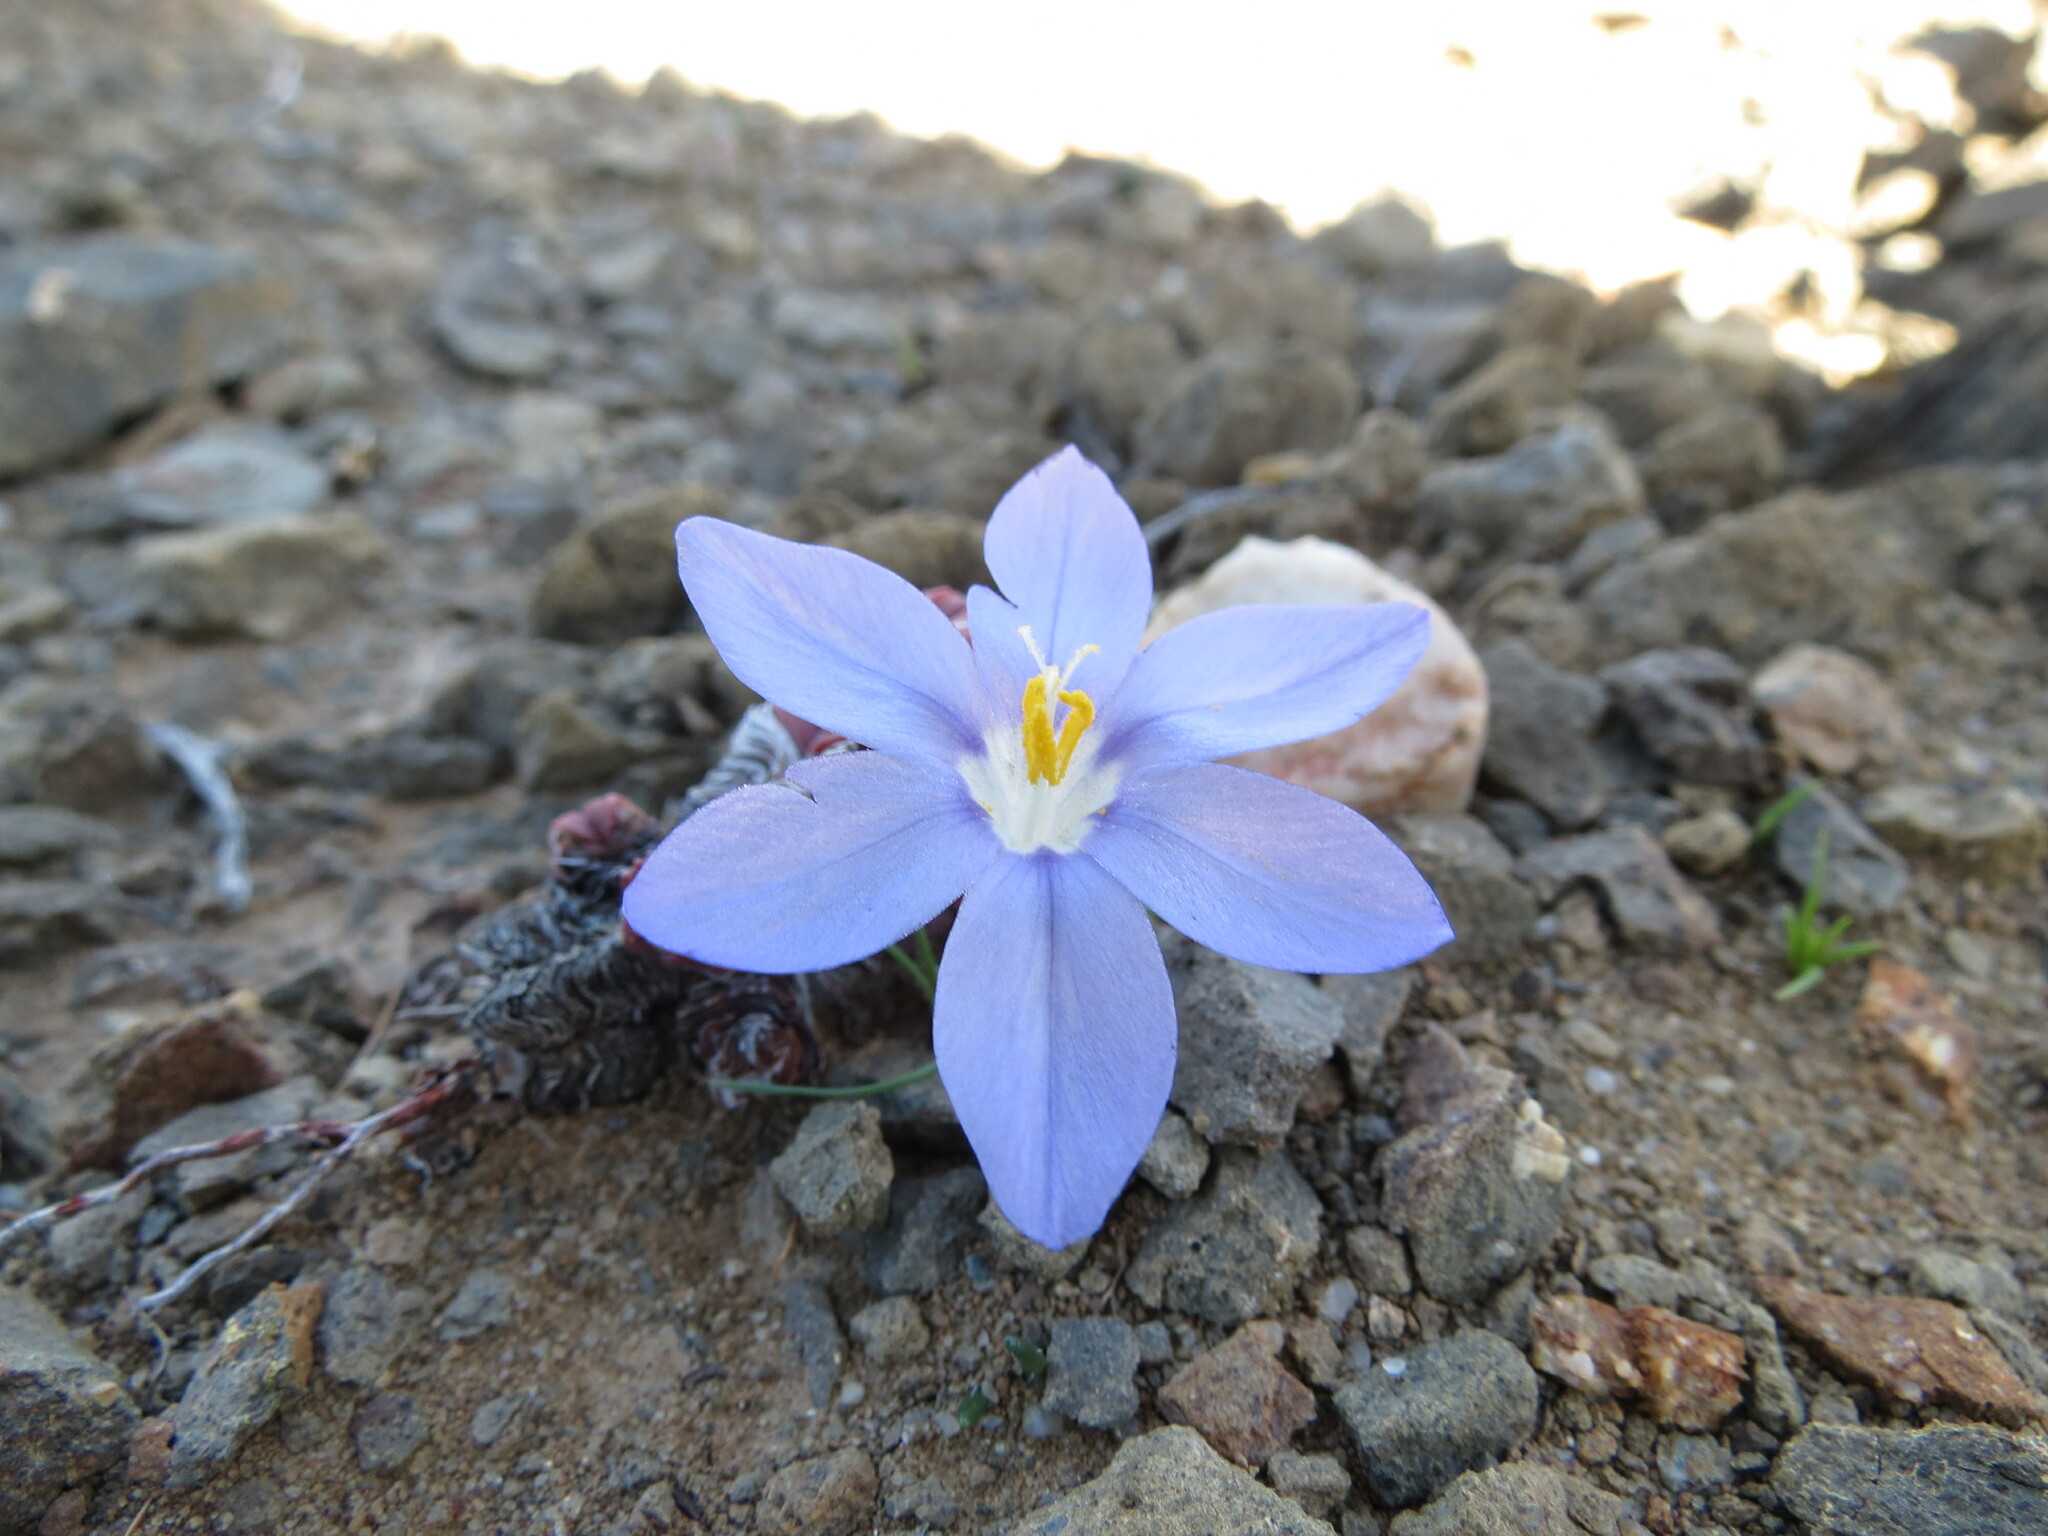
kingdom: Plantae
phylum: Tracheophyta
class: Liliopsida
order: Asparagales
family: Iridaceae
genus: Syringodea
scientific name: Syringodea longituba
